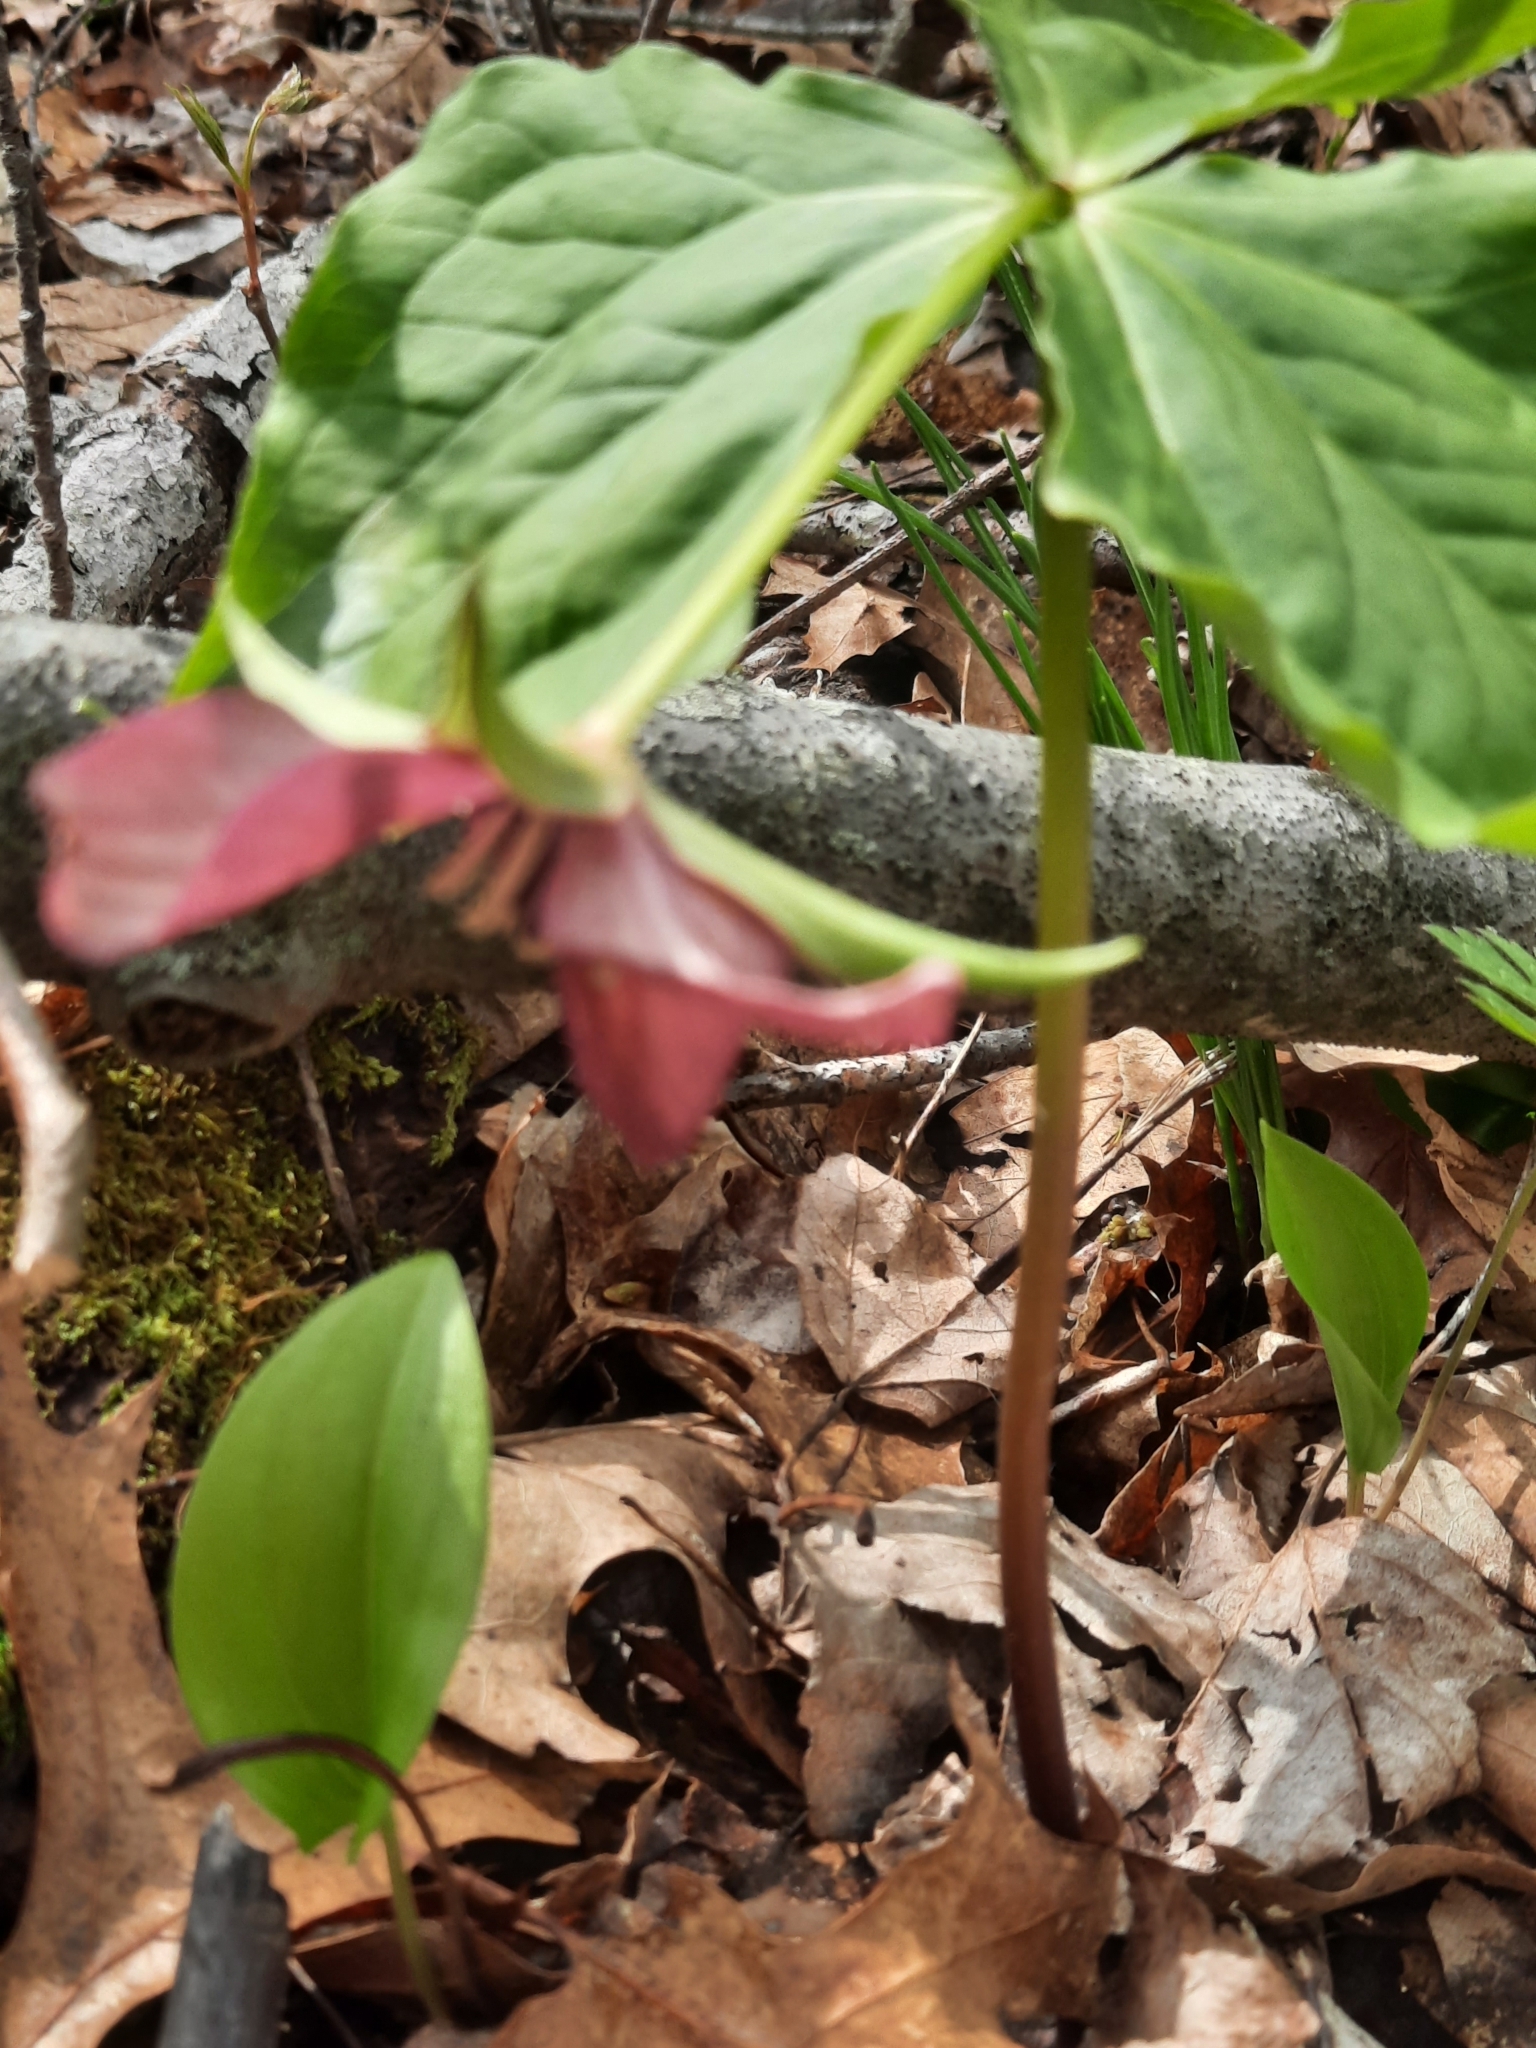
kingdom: Plantae
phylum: Tracheophyta
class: Liliopsida
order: Liliales
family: Melanthiaceae
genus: Trillium
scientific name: Trillium erectum
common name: Purple trillium
